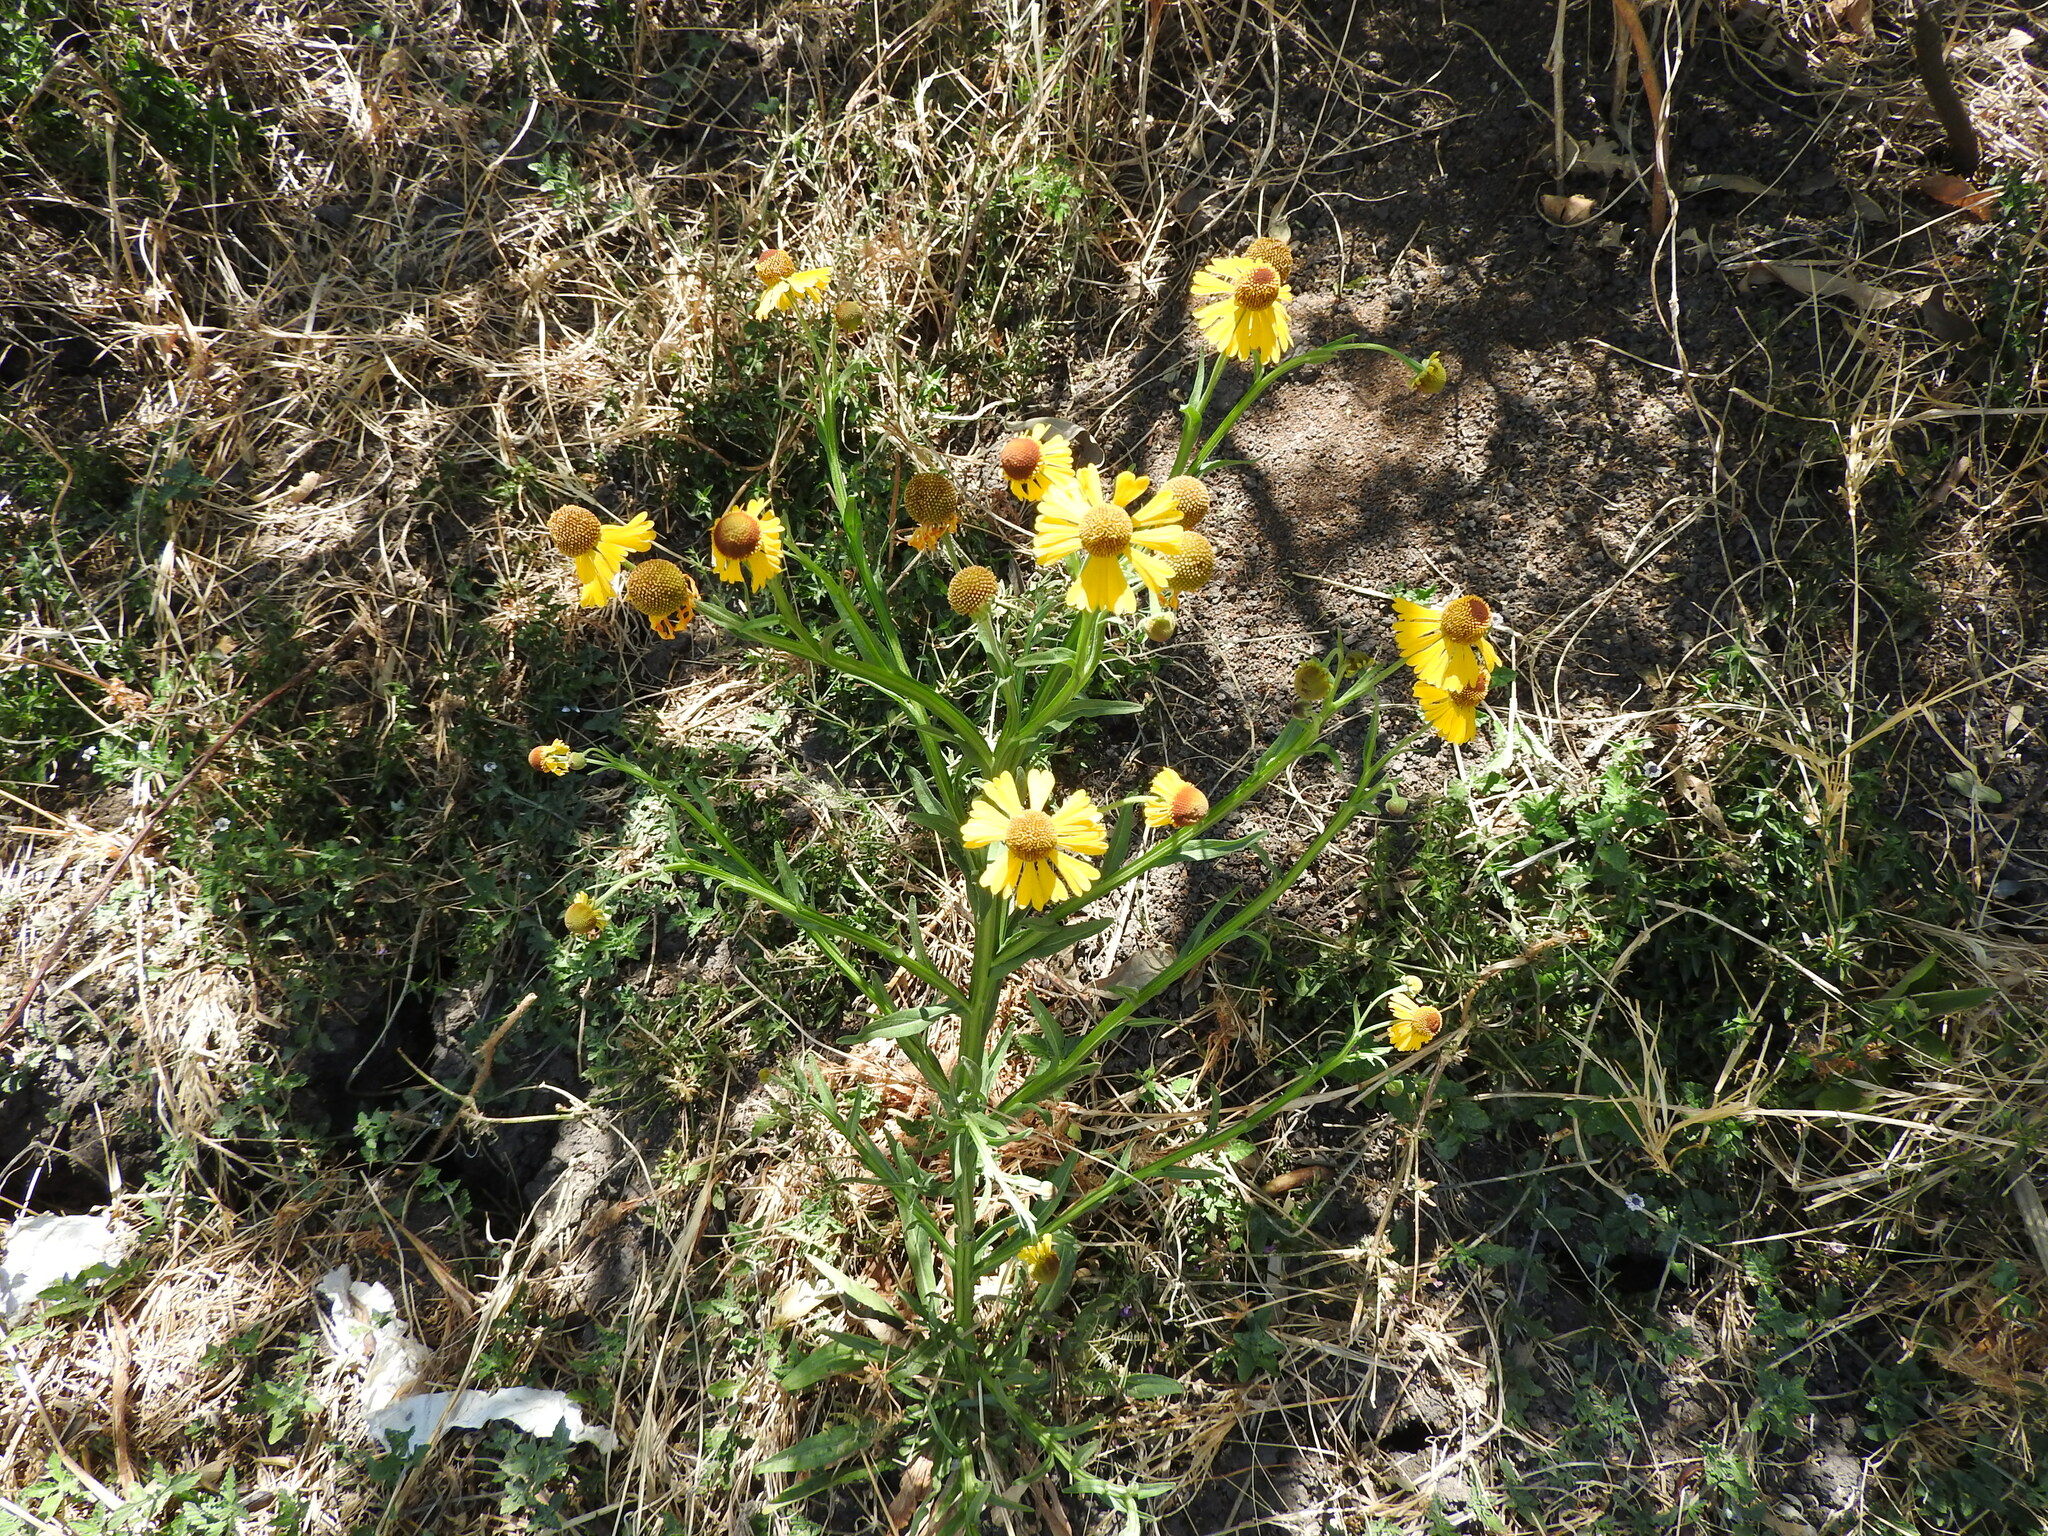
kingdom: Plantae
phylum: Tracheophyta
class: Magnoliopsida
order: Asterales
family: Asteraceae
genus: Helenium
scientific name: Helenium mexicanum
